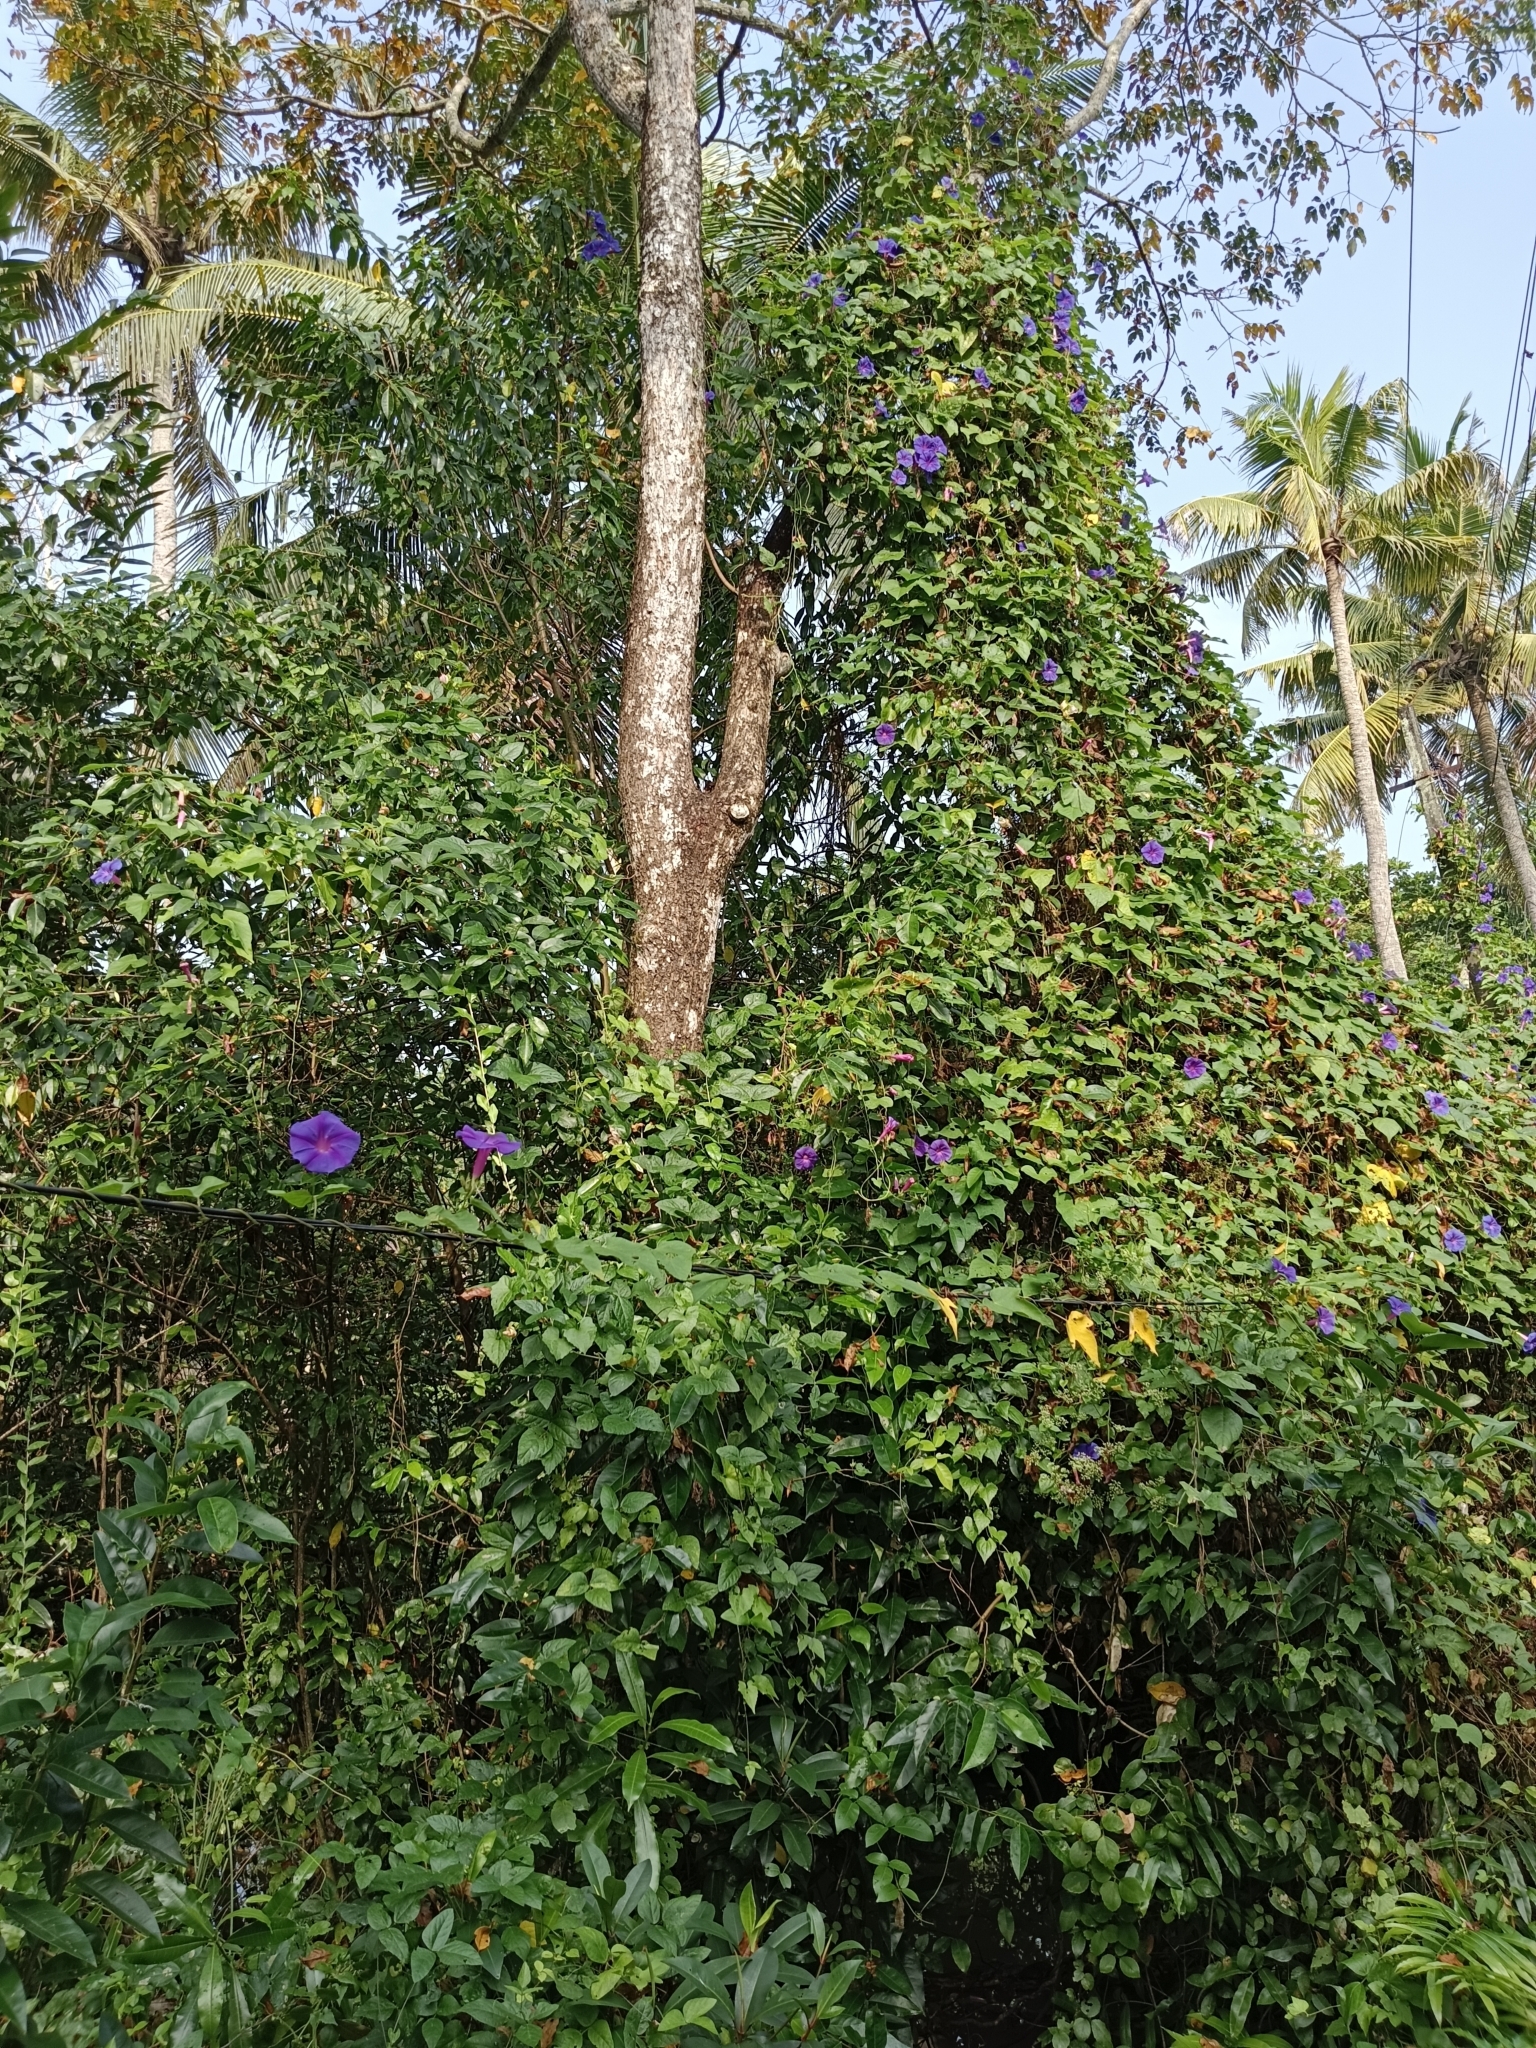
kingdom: Plantae
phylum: Tracheophyta
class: Magnoliopsida
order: Solanales
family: Convolvulaceae
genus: Ipomoea
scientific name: Ipomoea indica
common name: Blue dawnflower
